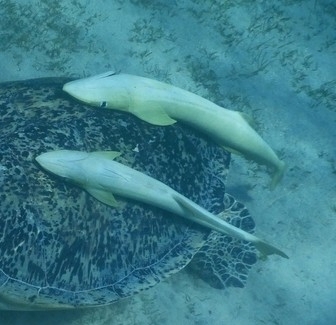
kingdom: Animalia
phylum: Chordata
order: Perciformes
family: Echeneidae
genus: Echeneis
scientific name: Echeneis naucrates
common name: Sharksucker
